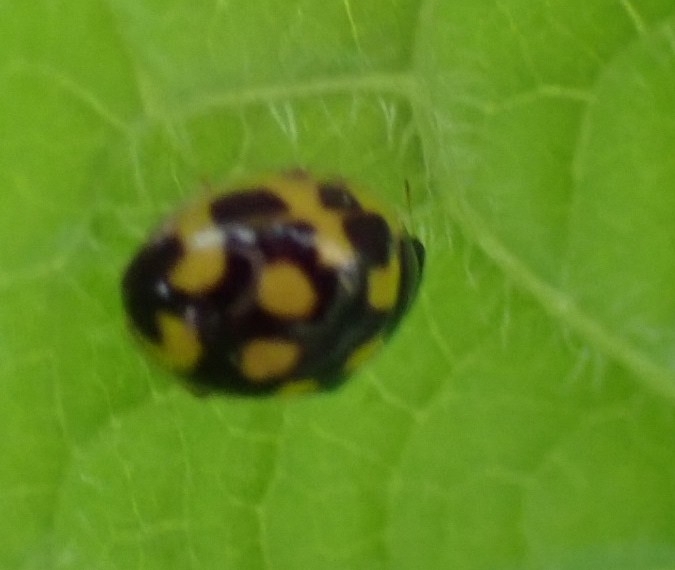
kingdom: Animalia
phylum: Arthropoda
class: Insecta
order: Coleoptera
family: Coccinellidae
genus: Propylaea
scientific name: Propylaea quatuordecimpunctata
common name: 14-spotted ladybird beetle
